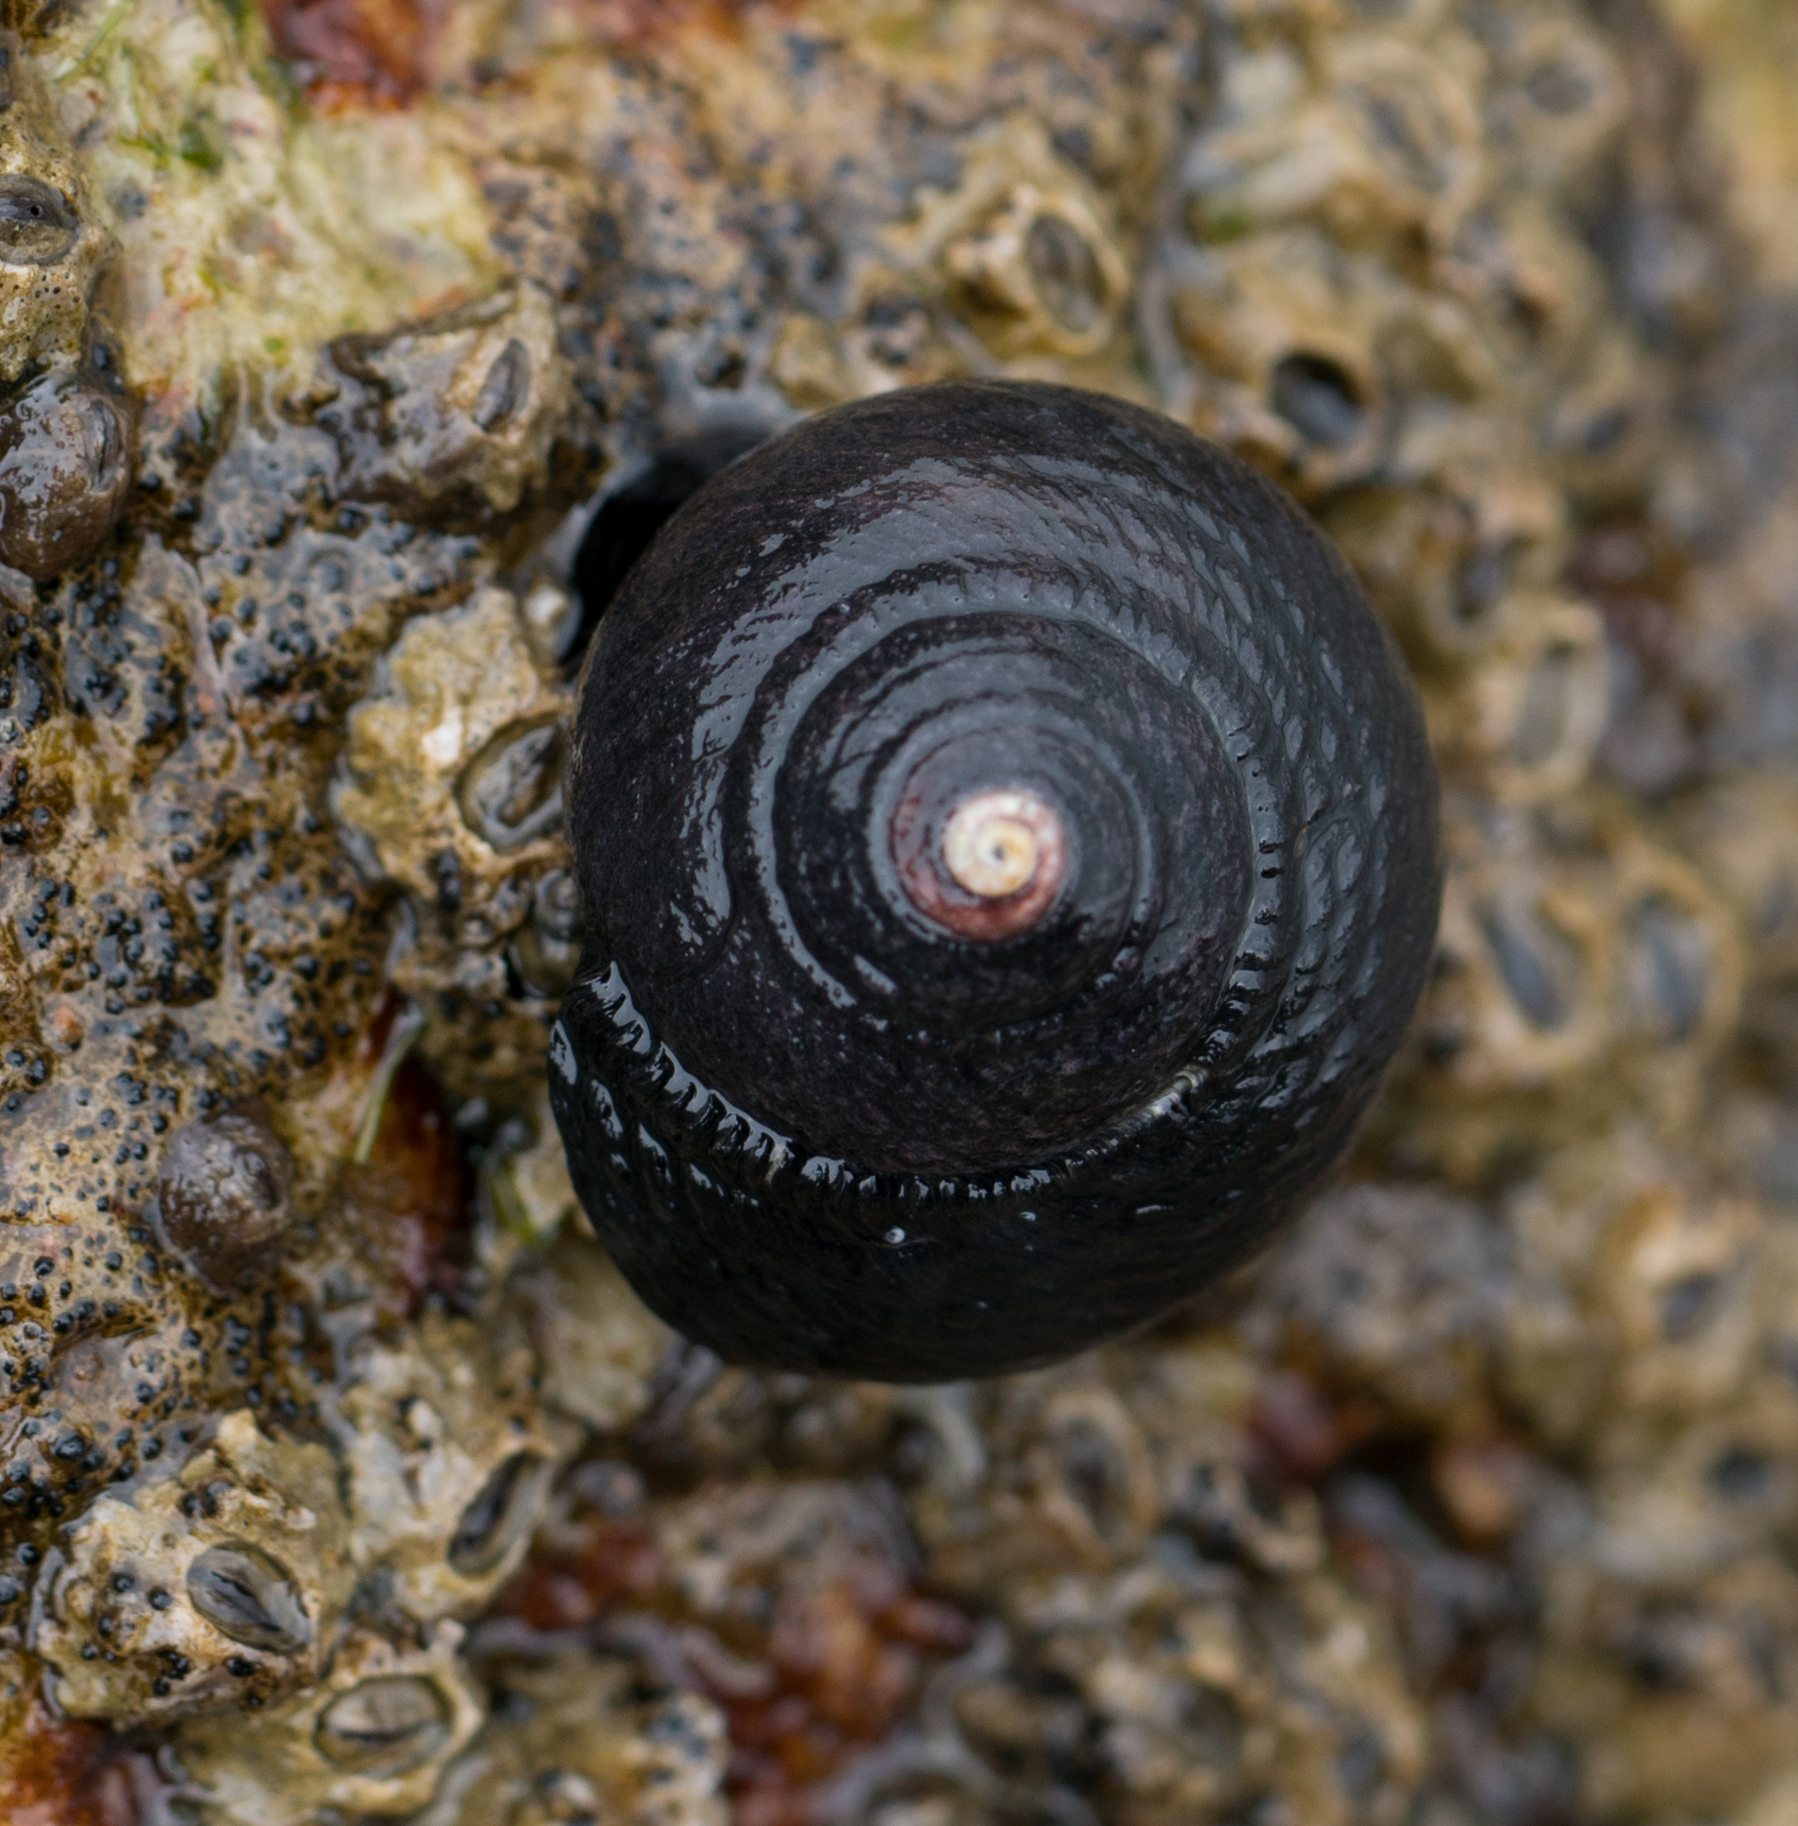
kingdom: Animalia
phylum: Mollusca
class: Gastropoda
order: Trochida
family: Tegulidae
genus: Tegula
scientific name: Tegula funebralis
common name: Black tegula
